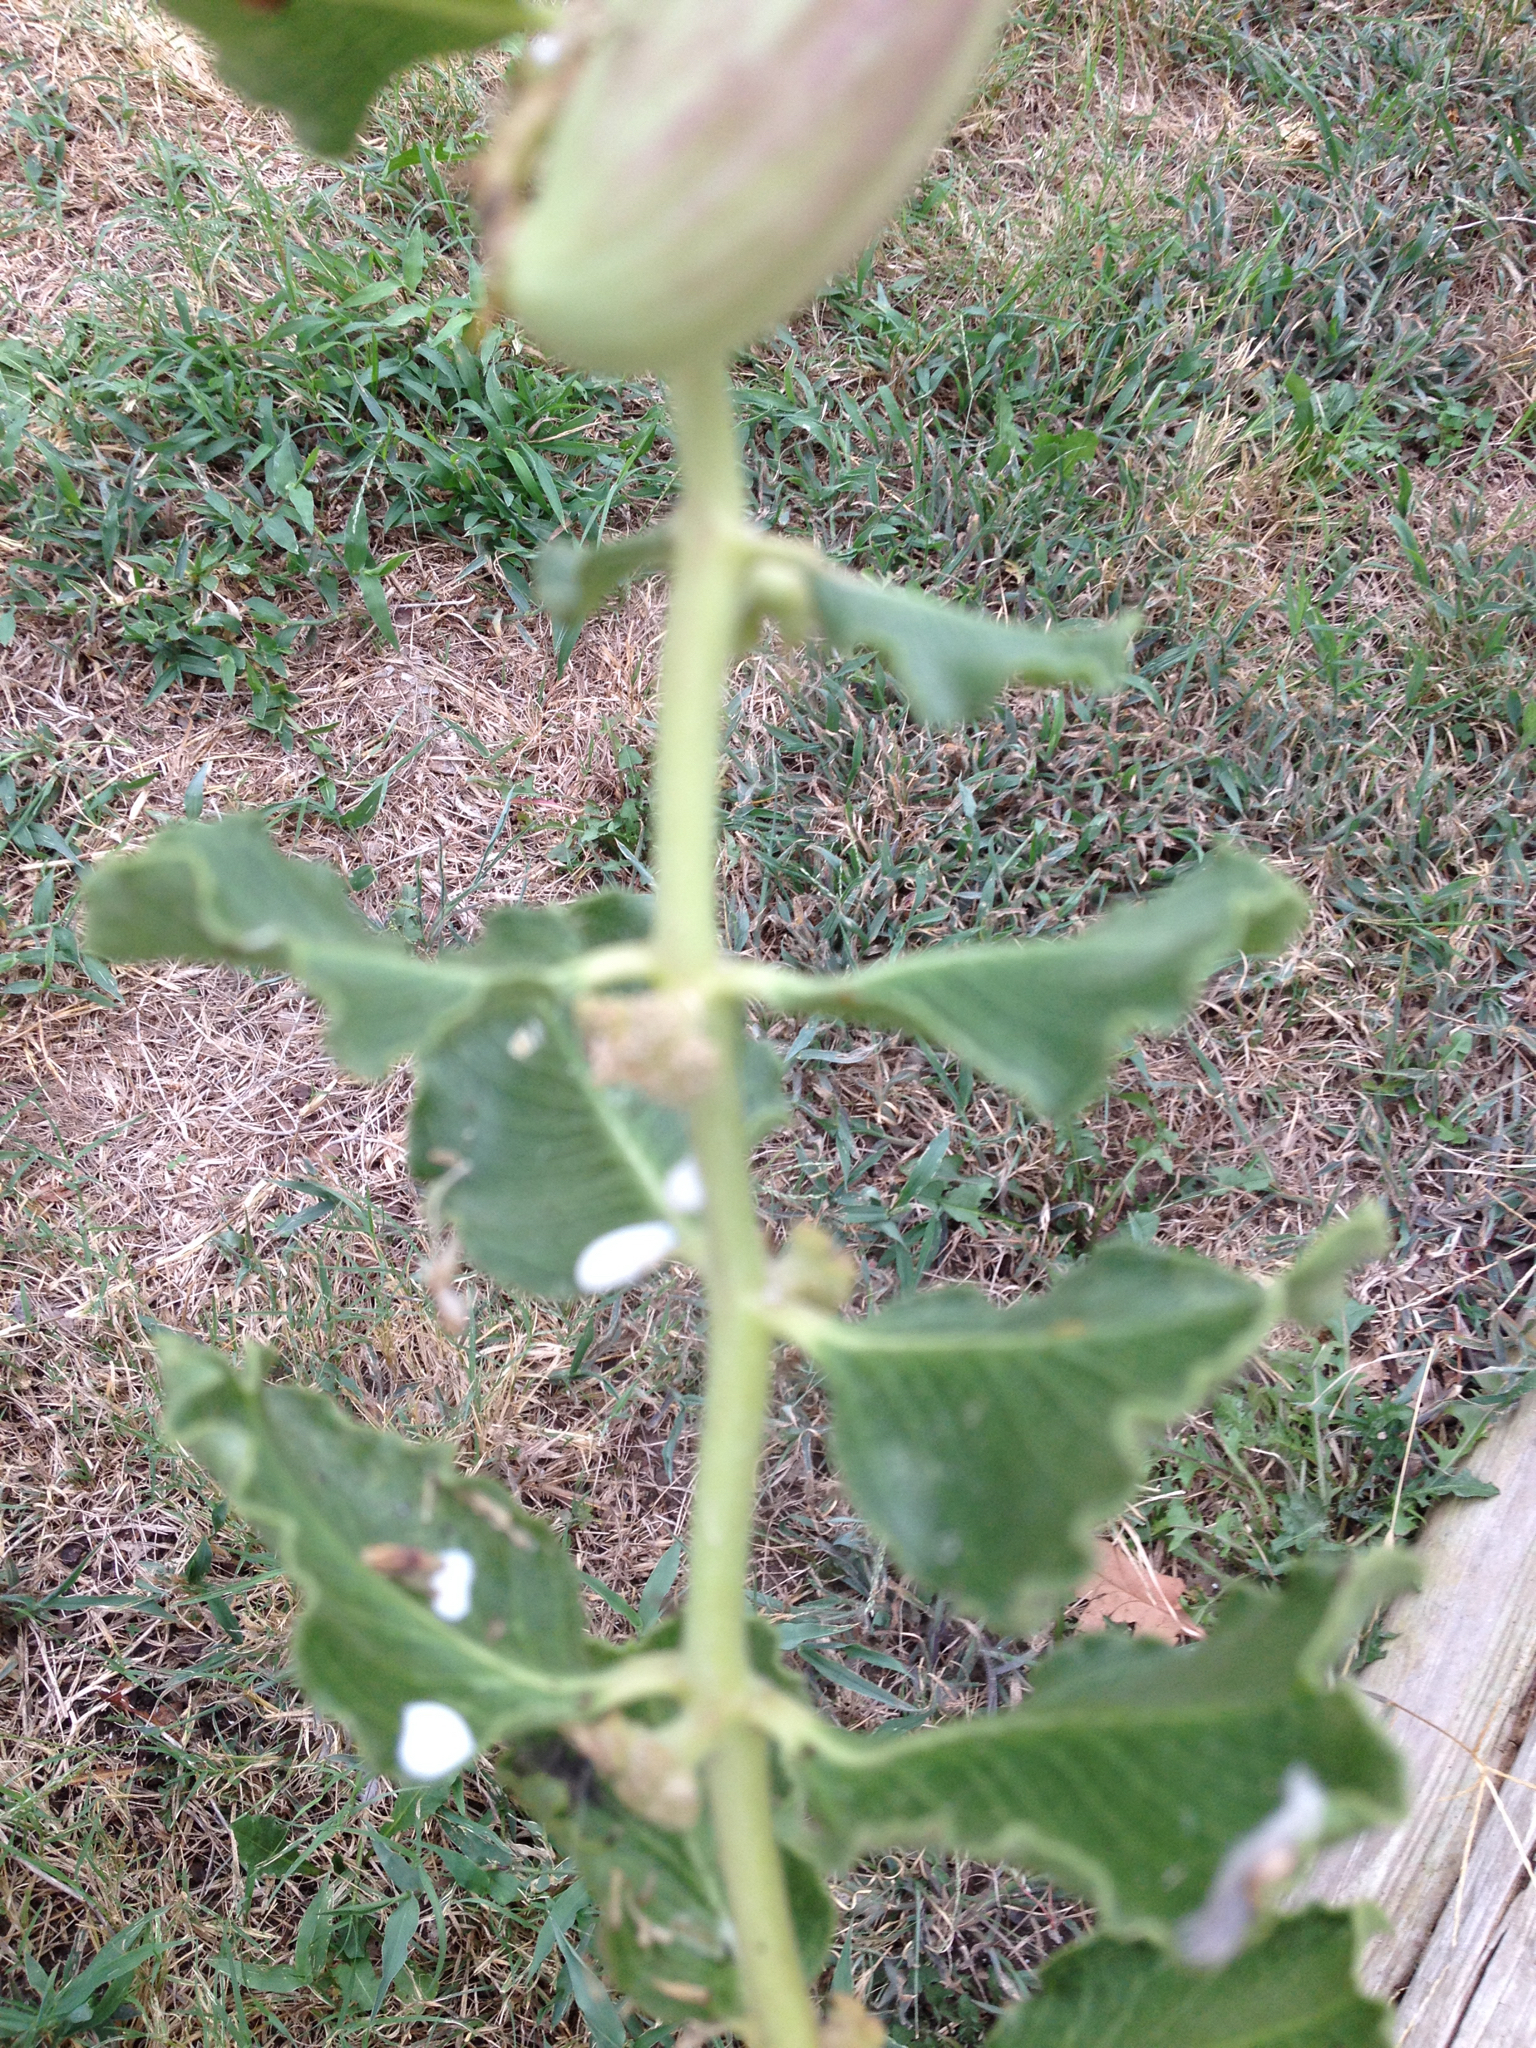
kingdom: Plantae
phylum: Tracheophyta
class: Magnoliopsida
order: Gentianales
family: Apocynaceae
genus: Asclepias
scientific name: Asclepias viridiflora
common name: Green comet milkweed
